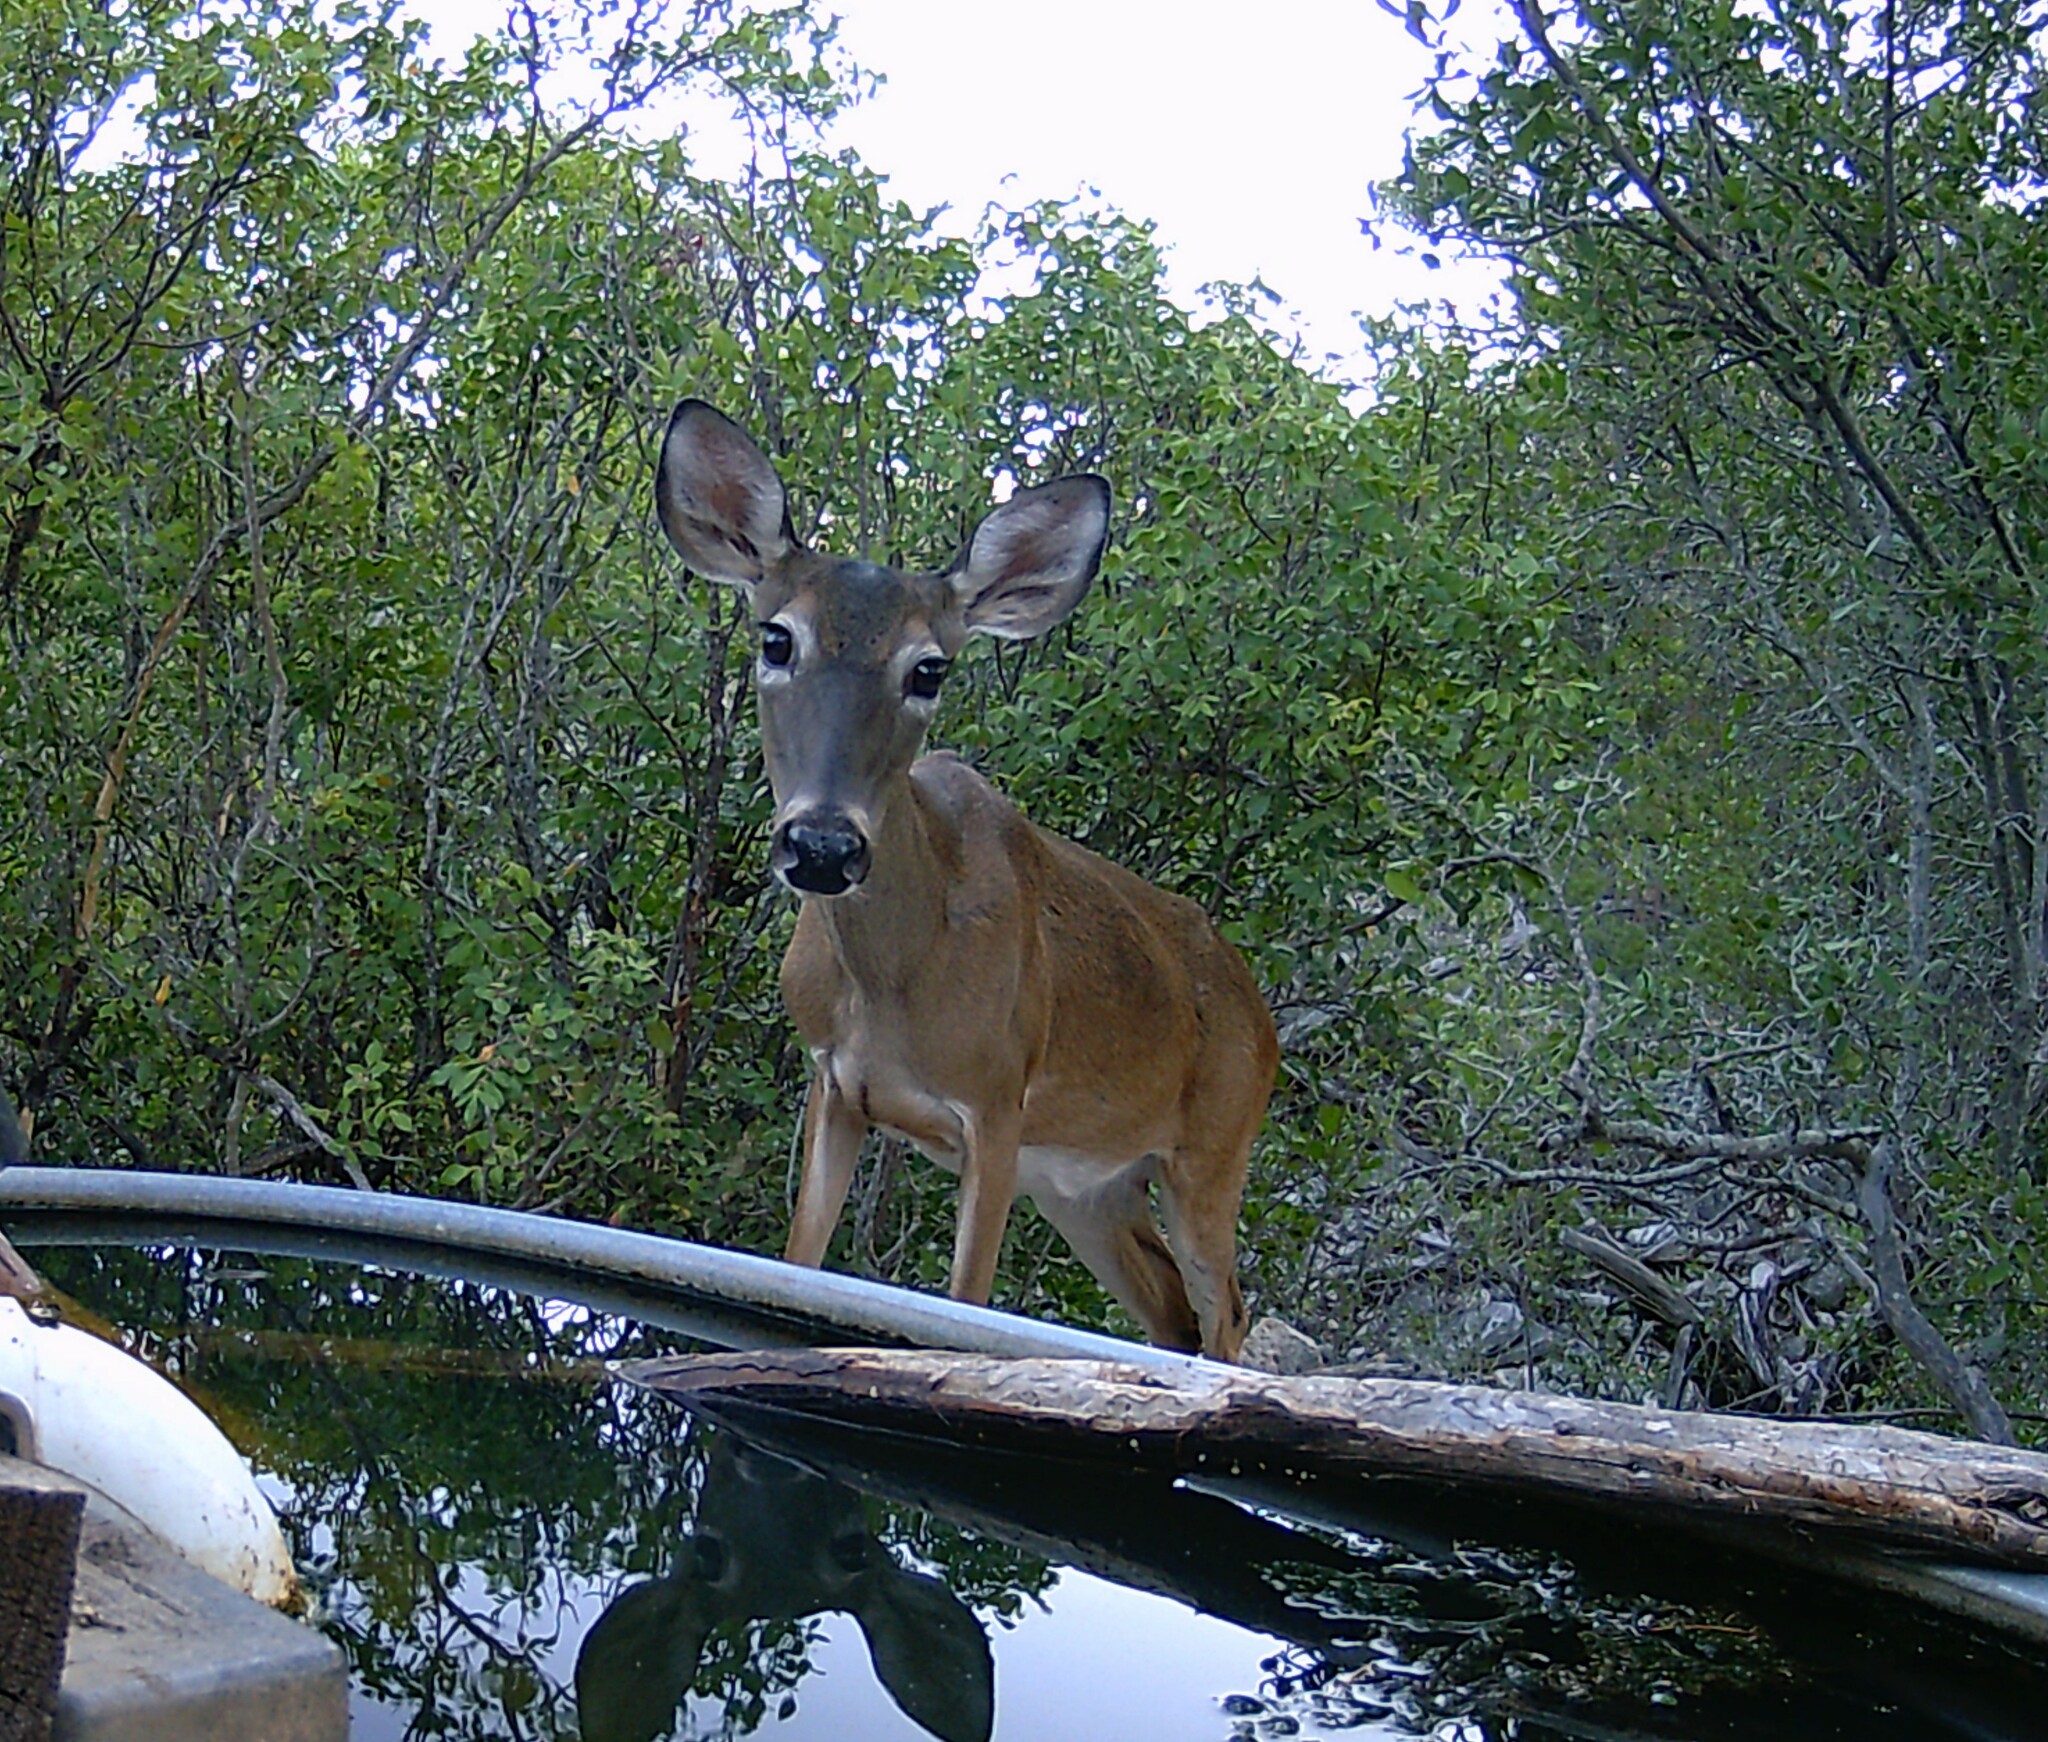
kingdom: Animalia
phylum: Chordata
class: Mammalia
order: Artiodactyla
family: Cervidae
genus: Odocoileus
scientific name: Odocoileus virginianus
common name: White-tailed deer
